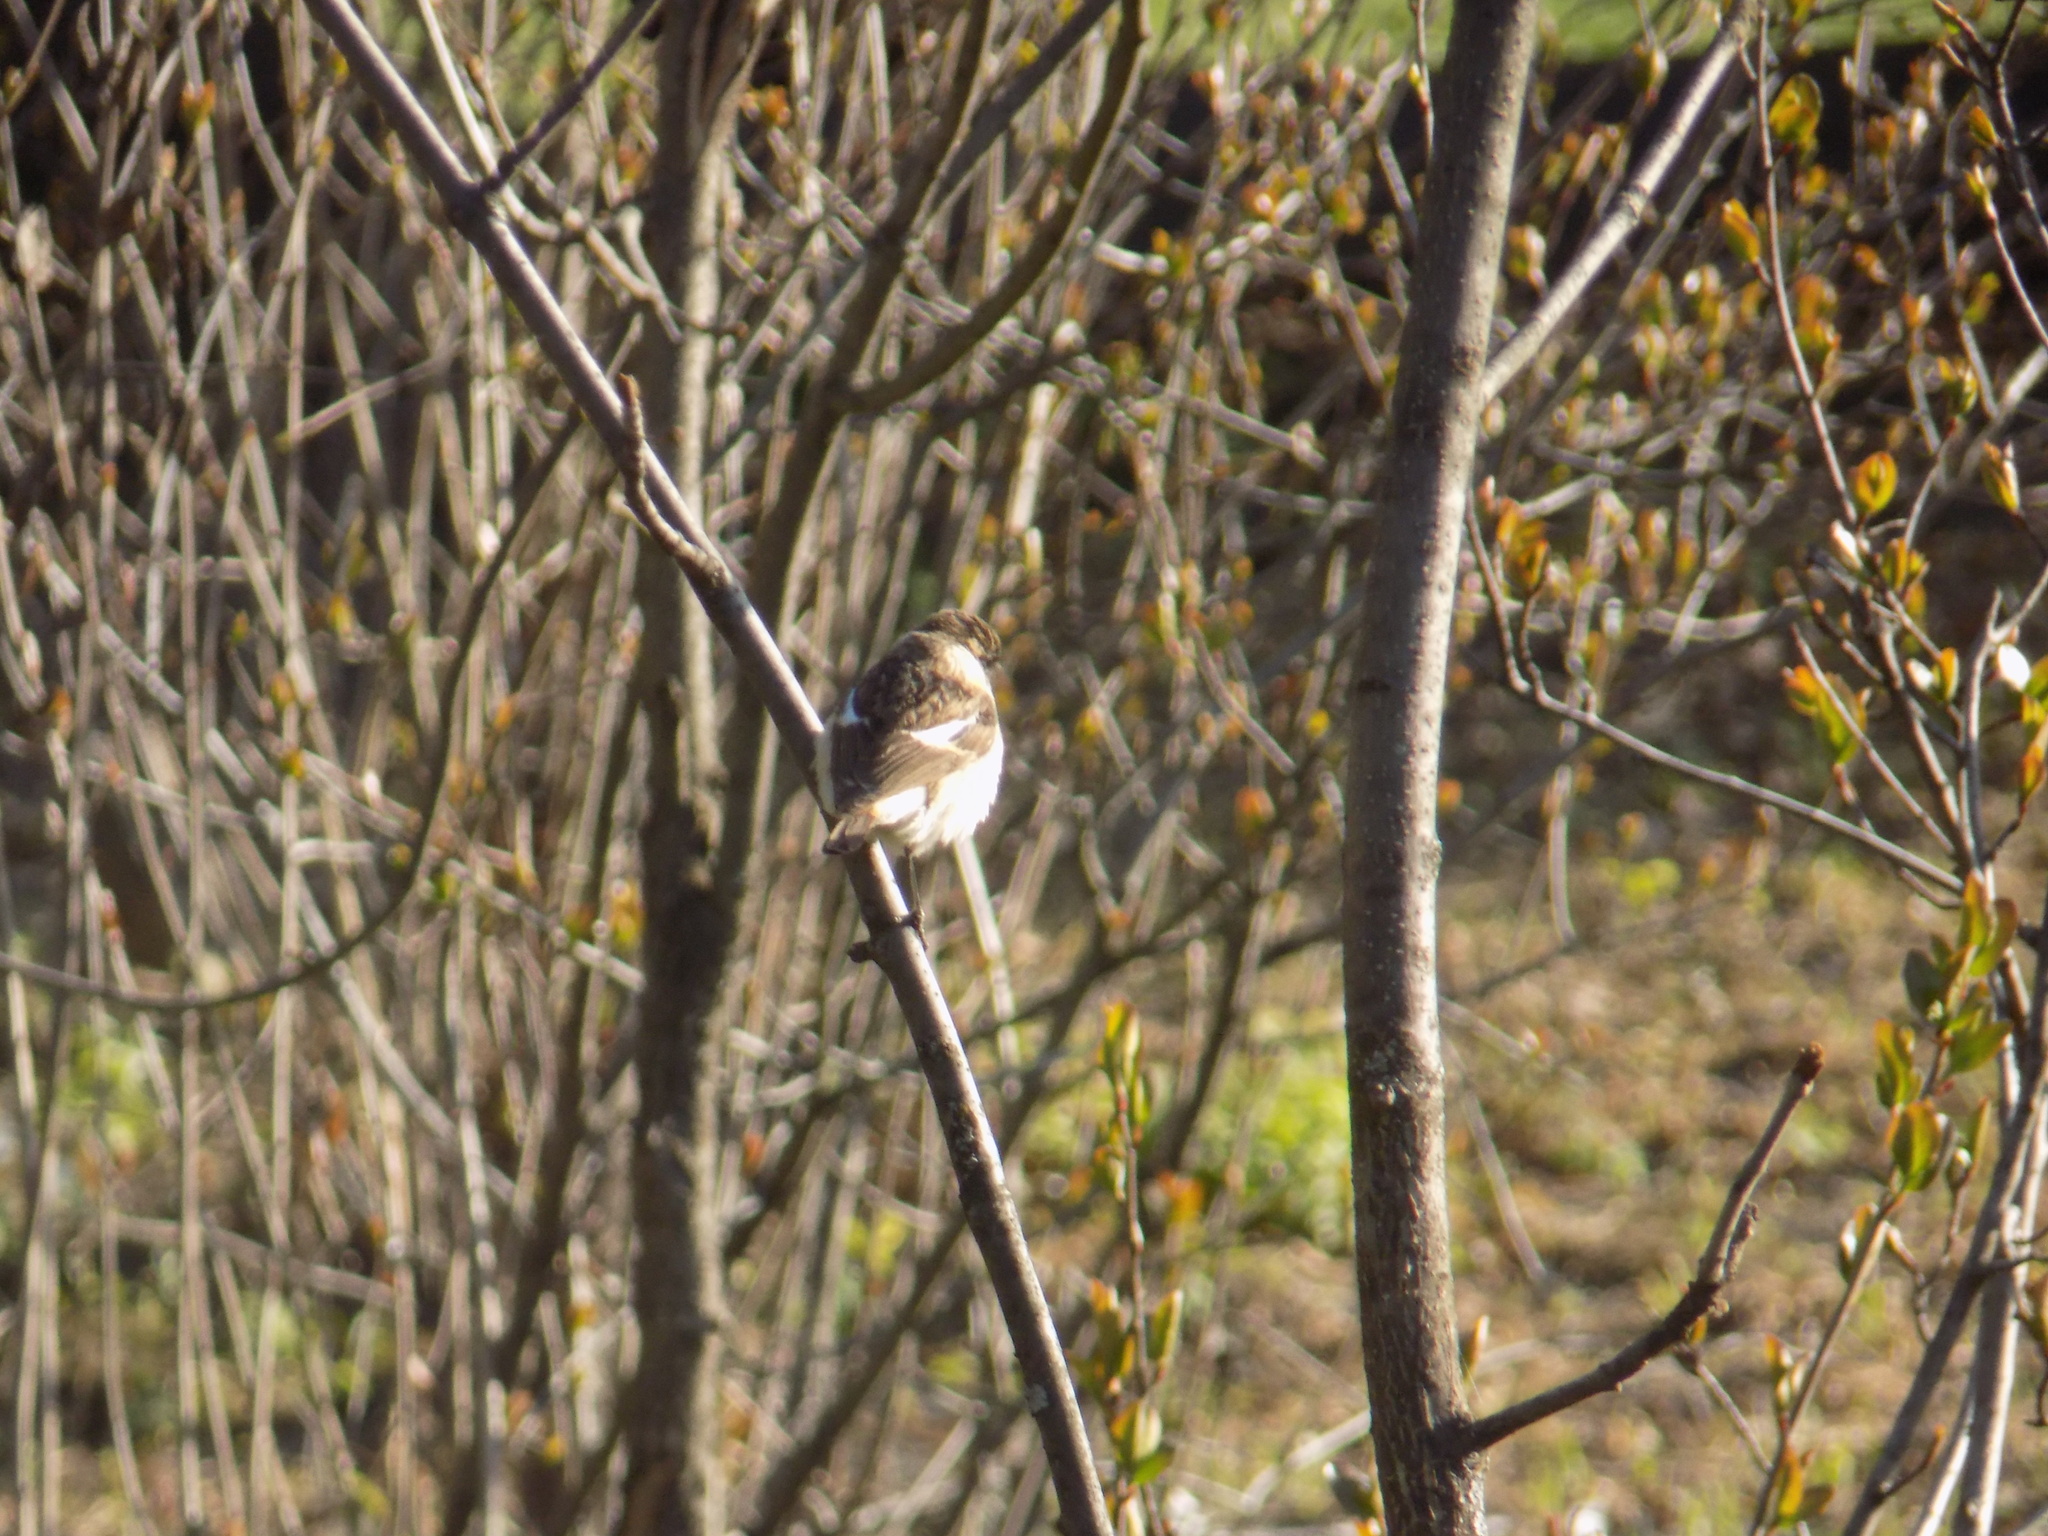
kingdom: Animalia
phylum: Chordata
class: Aves
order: Passeriformes
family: Muscicapidae
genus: Saxicola
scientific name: Saxicola maurus
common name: Siberian stonechat
